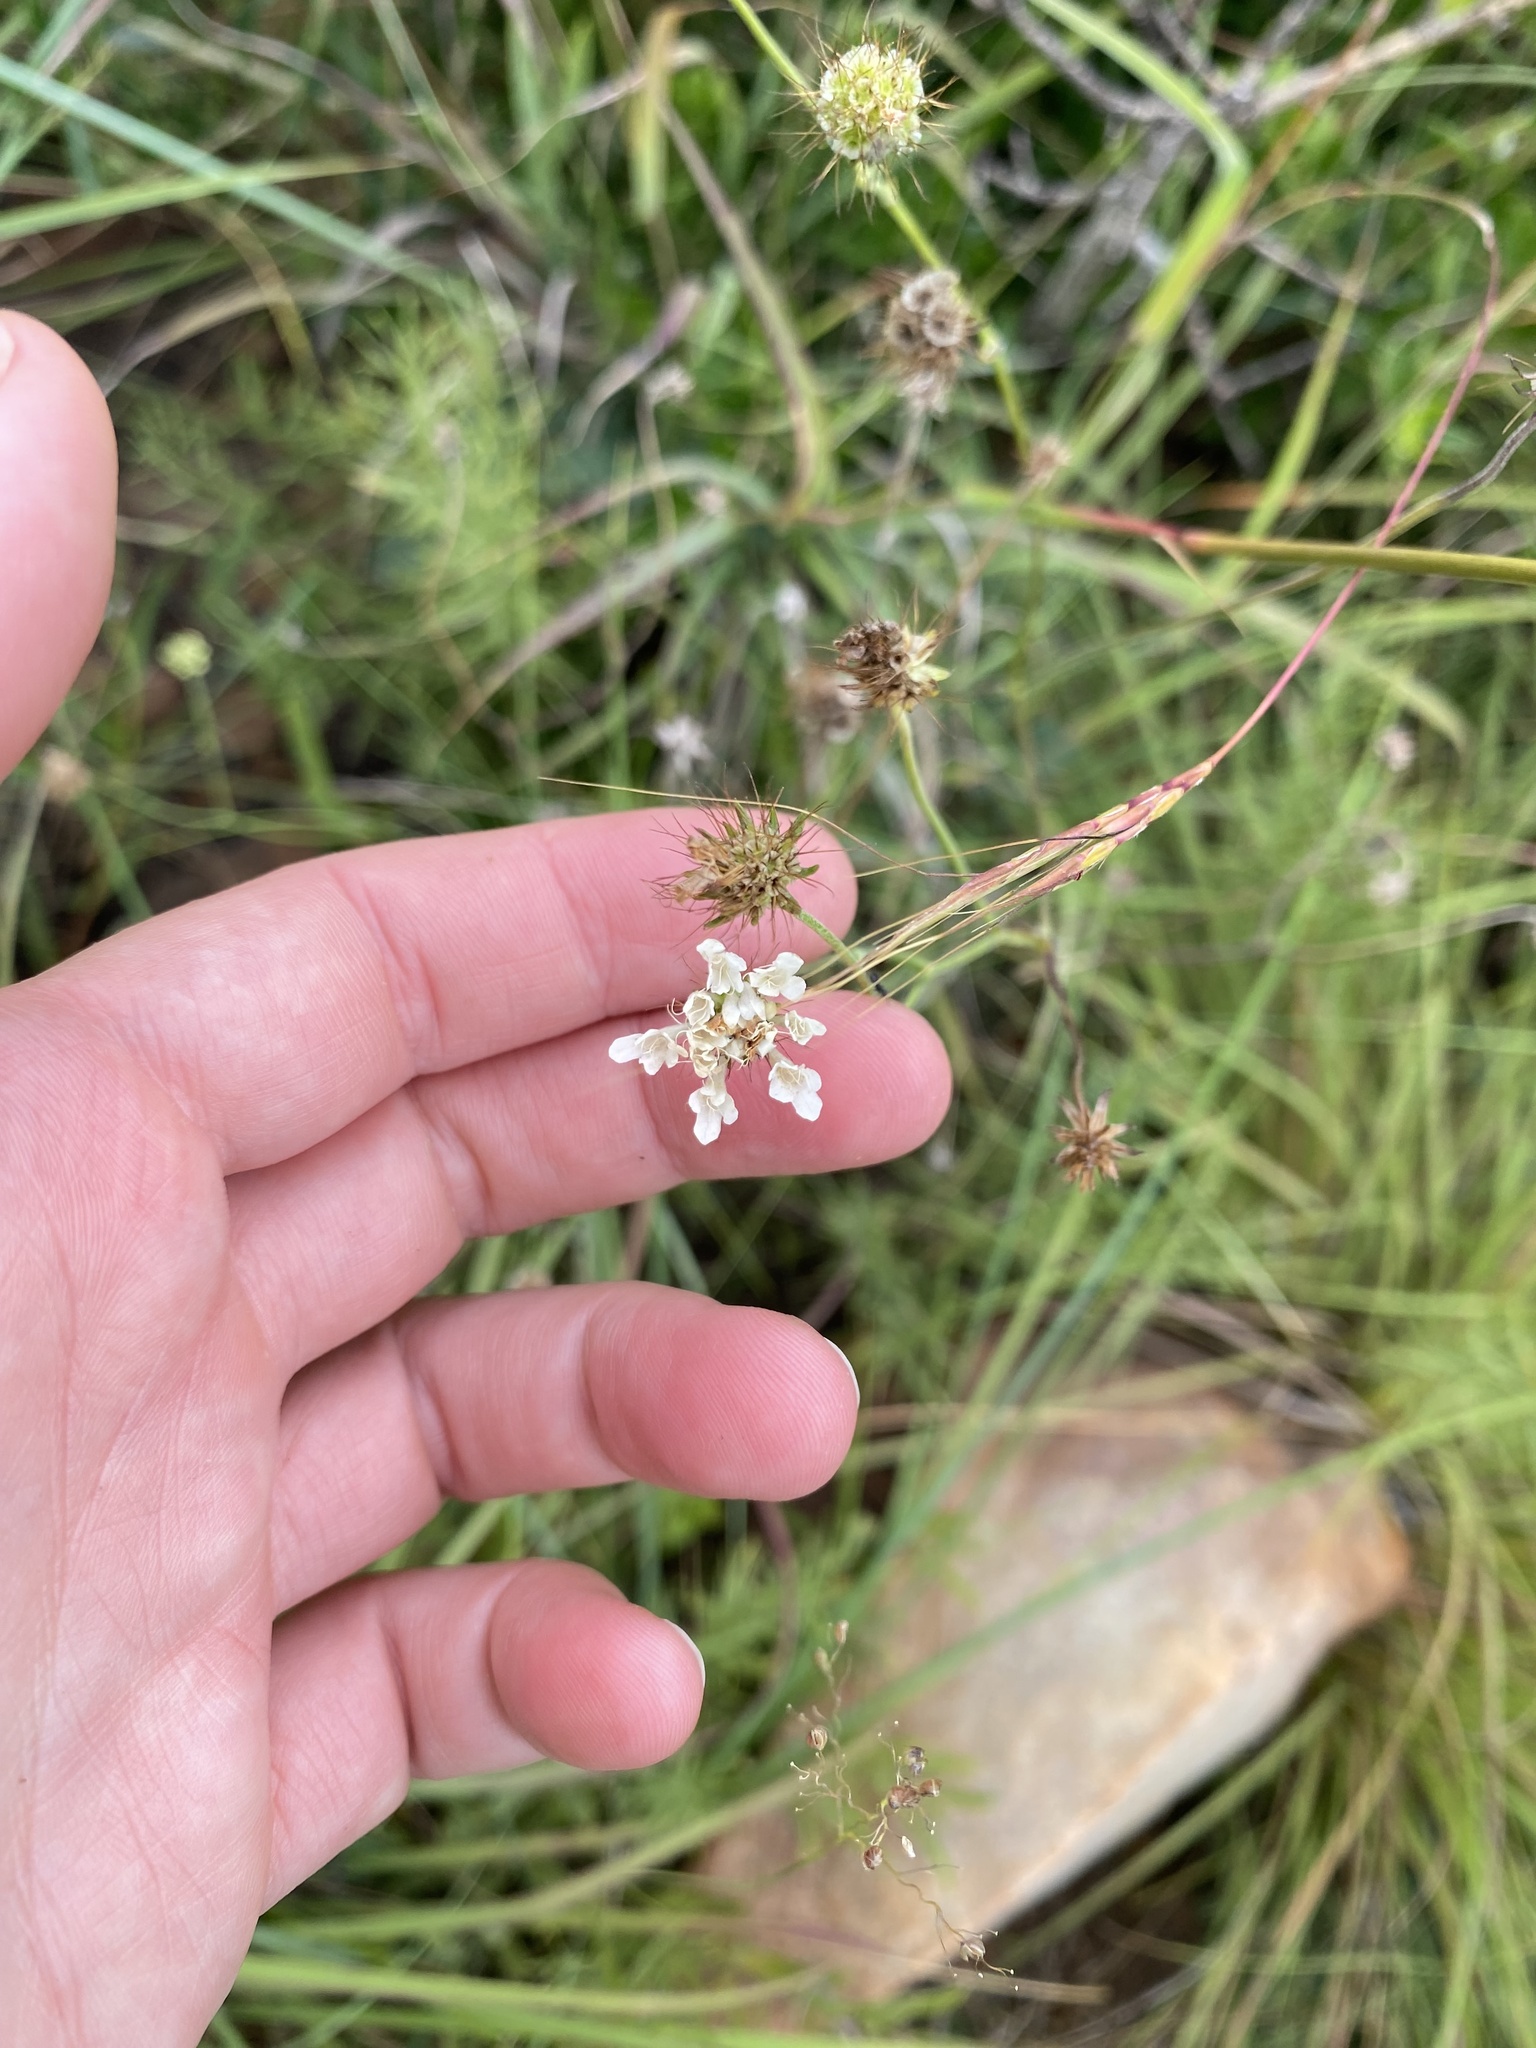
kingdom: Plantae
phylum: Tracheophyta
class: Magnoliopsida
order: Dipsacales
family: Caprifoliaceae
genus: Scabiosa
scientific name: Scabiosa columbaria
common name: Small scabious
